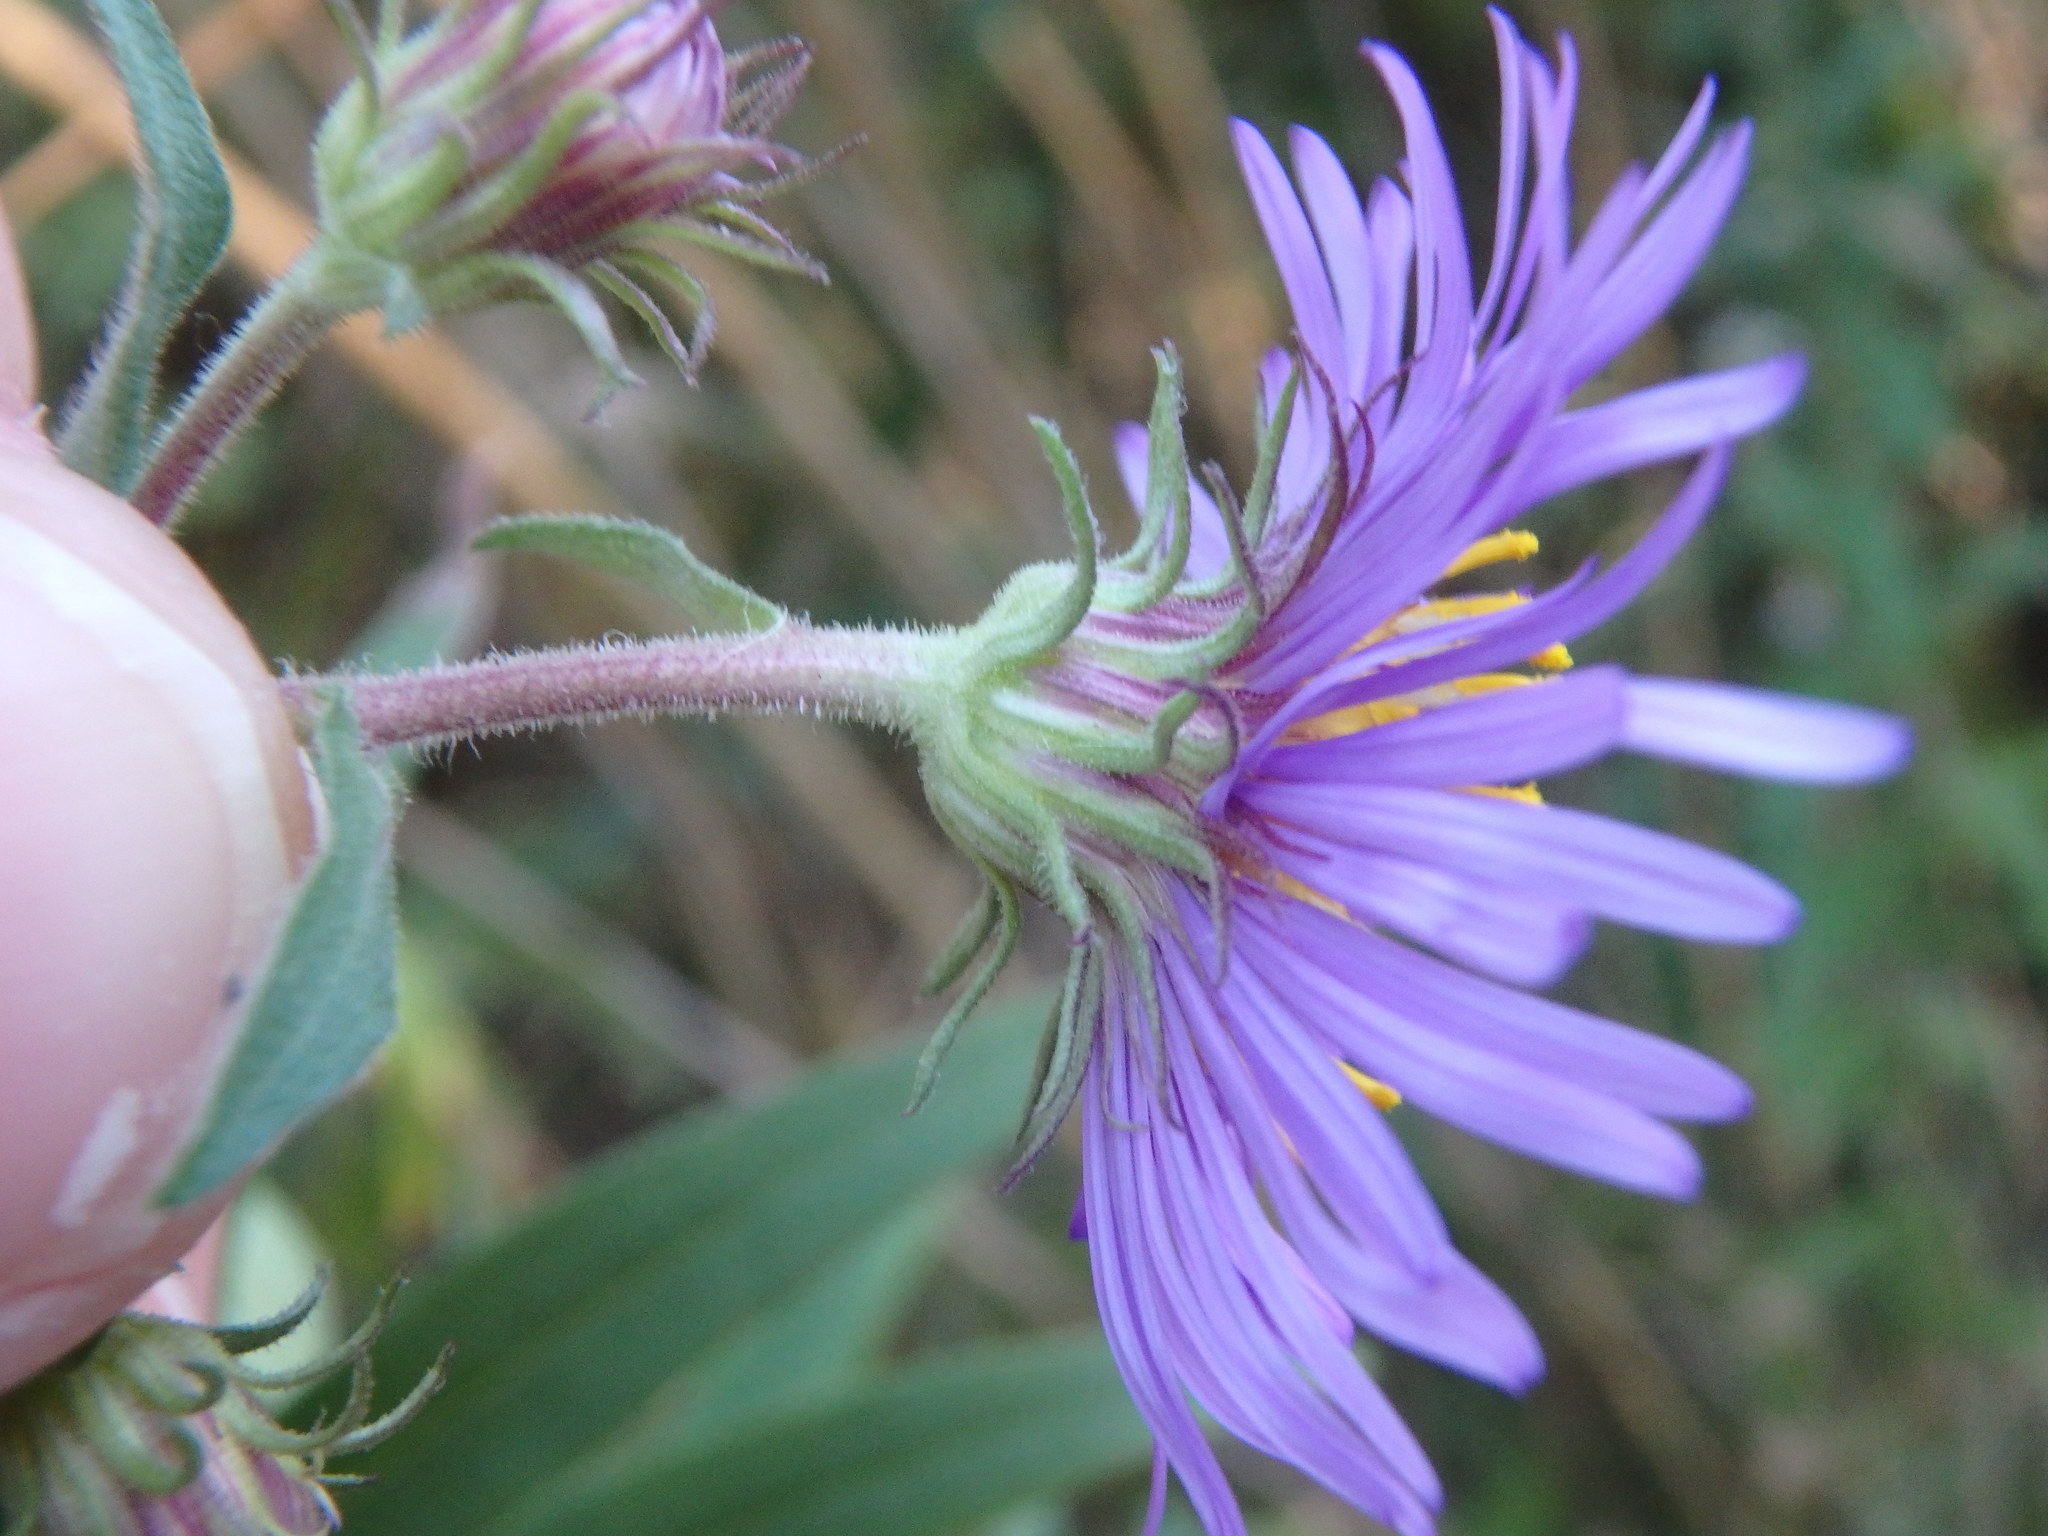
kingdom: Plantae
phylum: Tracheophyta
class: Magnoliopsida
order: Asterales
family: Asteraceae
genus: Symphyotrichum
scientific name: Symphyotrichum novae-angliae
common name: Michaelmas daisy
